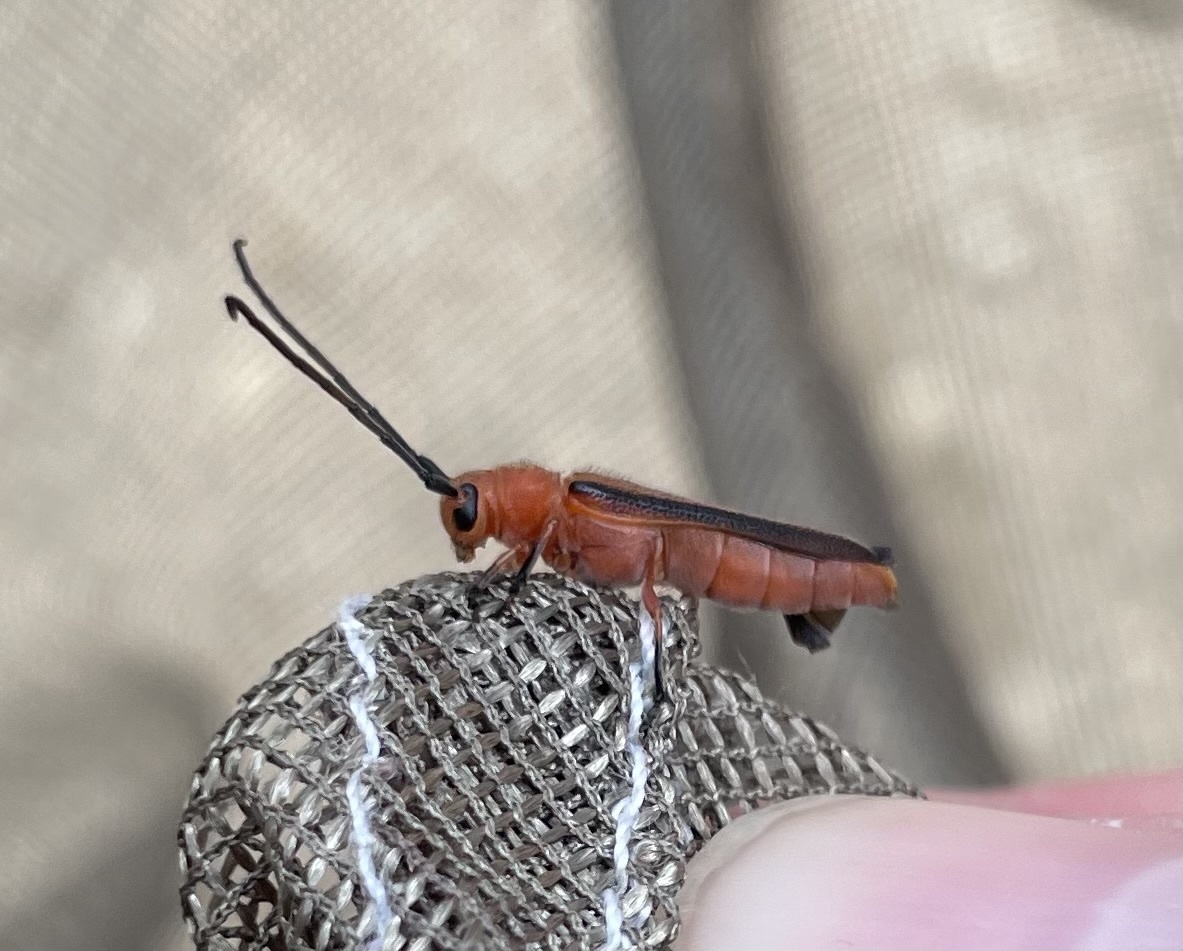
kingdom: Animalia
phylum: Arthropoda
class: Insecta
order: Coleoptera
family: Cerambycidae
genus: Oberea
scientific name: Oberea gracilis
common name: Oak sprout oberea
